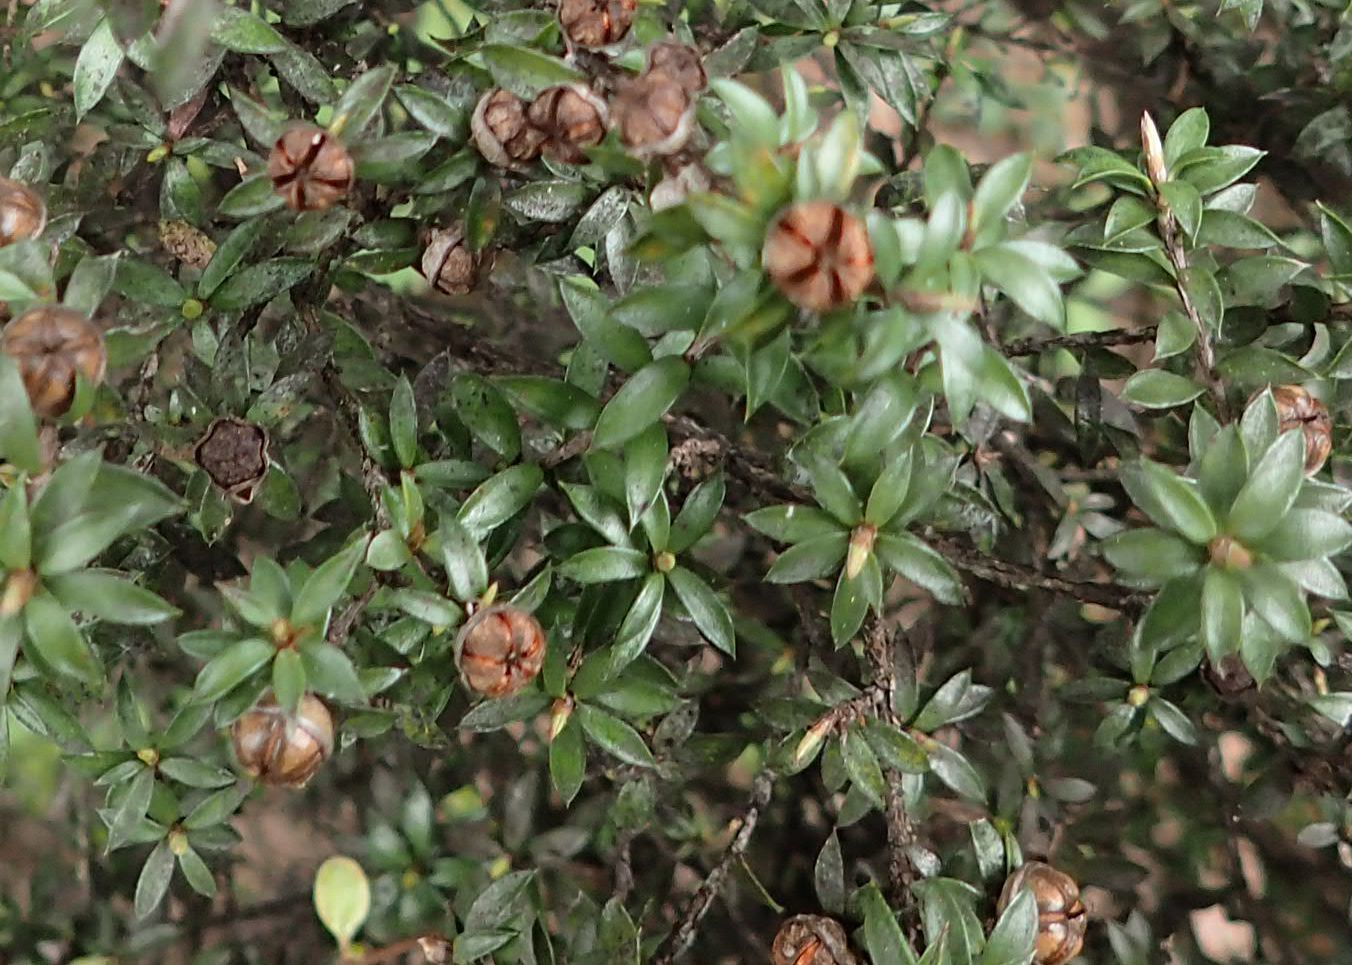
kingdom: Plantae
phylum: Tracheophyta
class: Magnoliopsida
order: Myrtales
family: Myrtaceae
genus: Leptospermum
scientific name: Leptospermum scoparium
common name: Broom tea-tree
